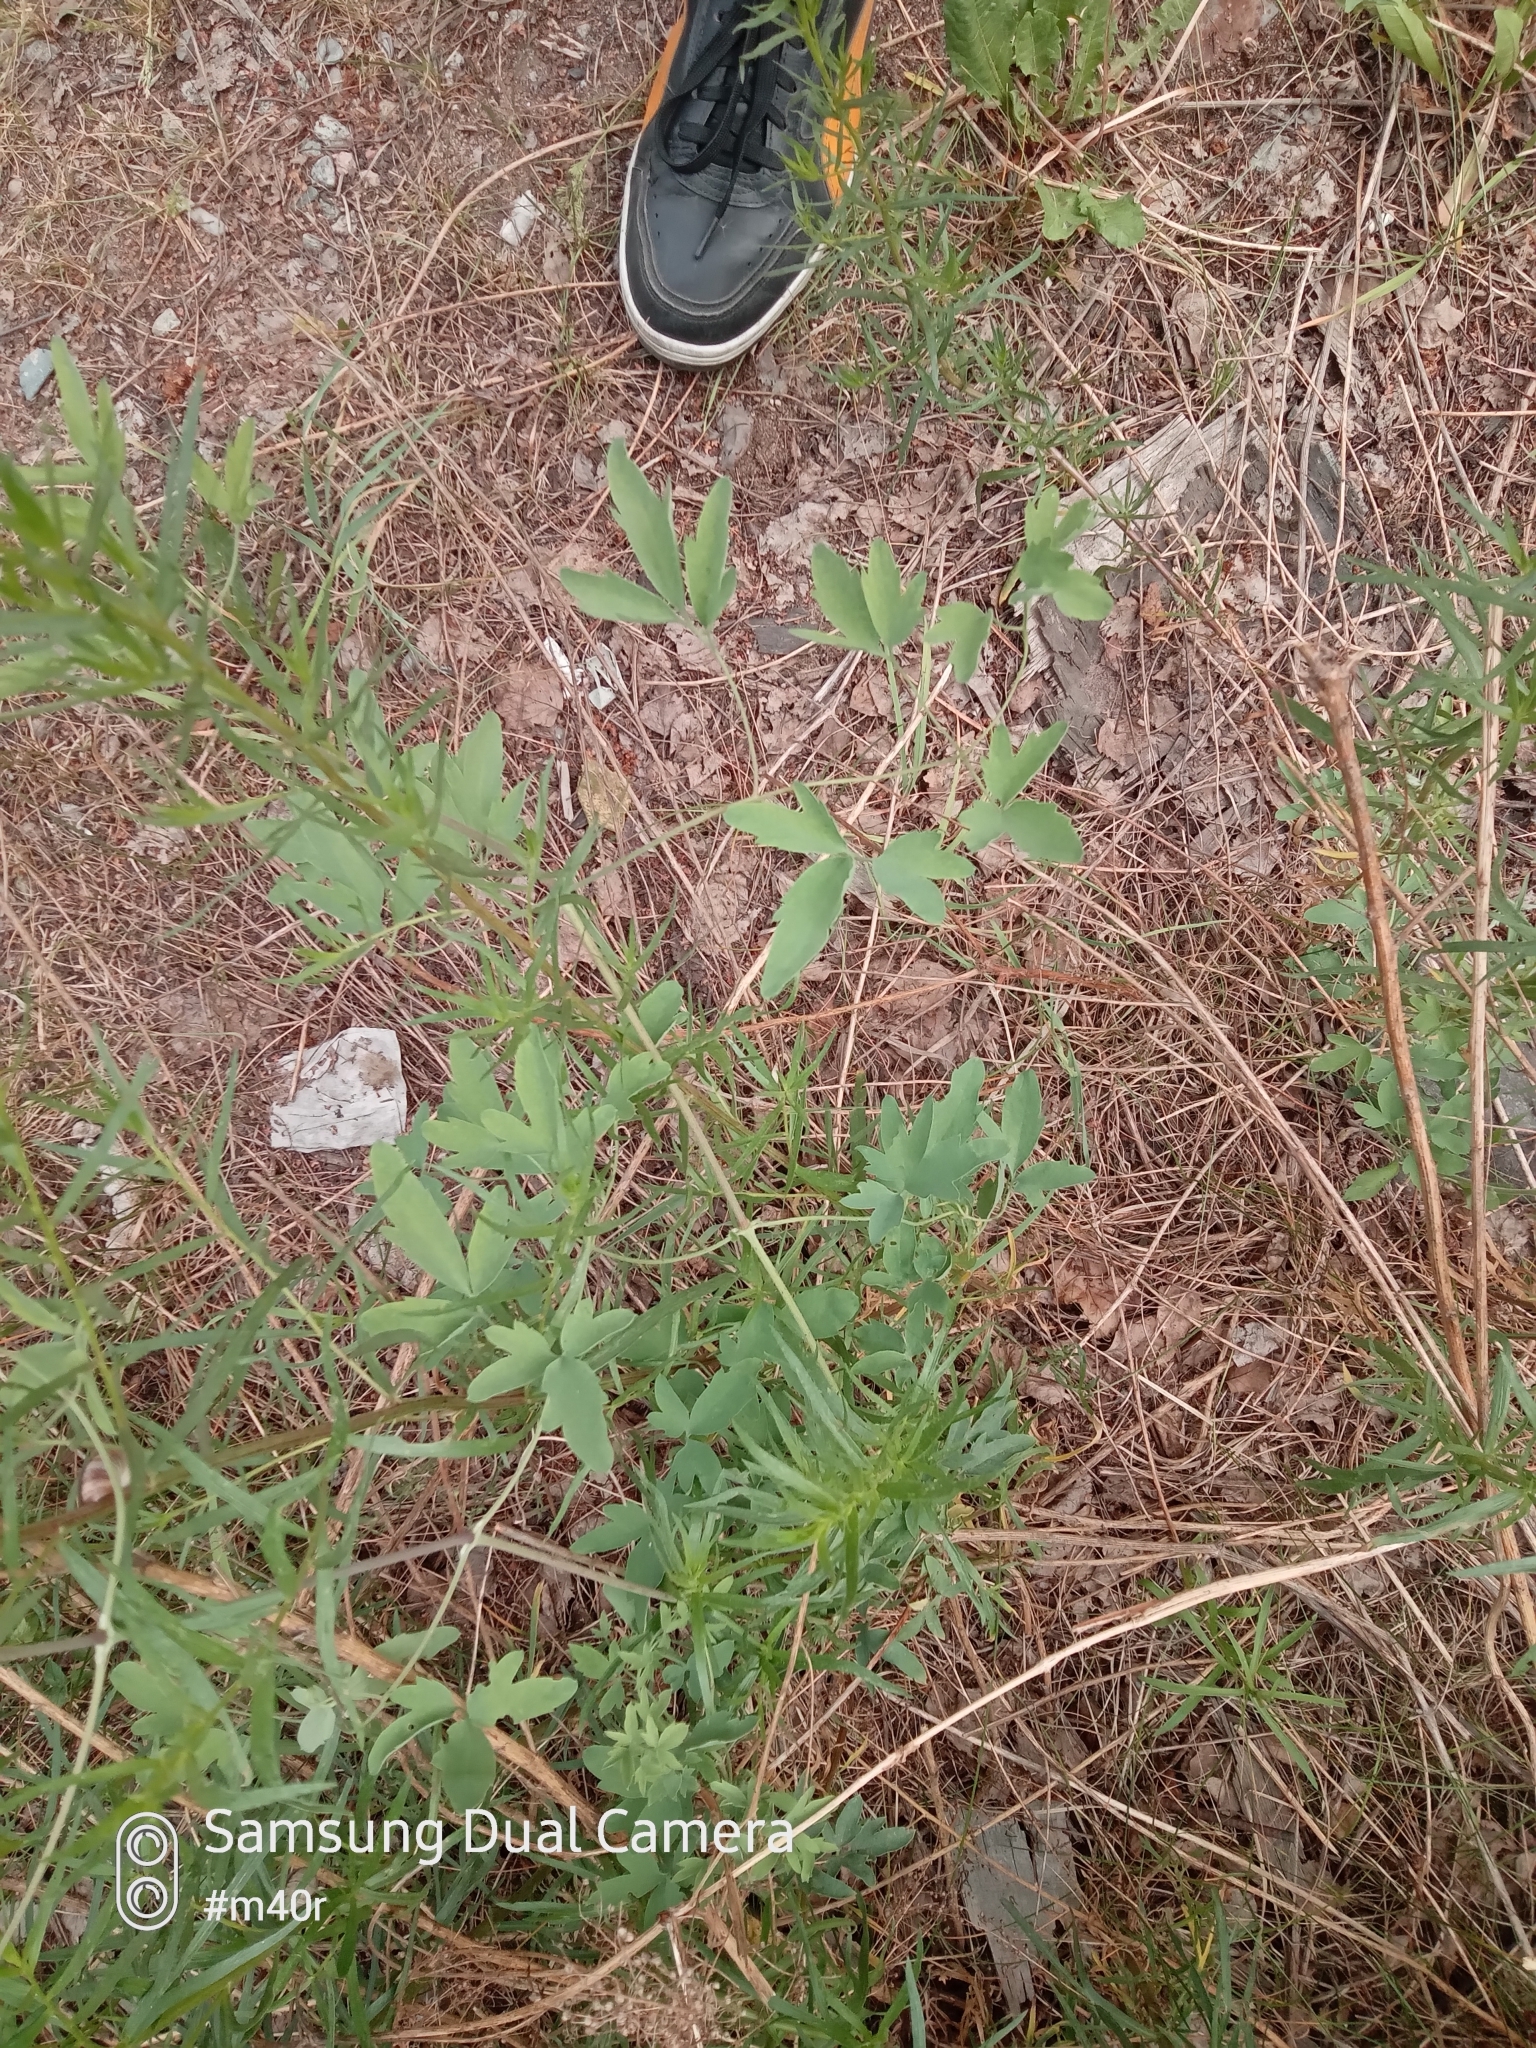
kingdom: Plantae
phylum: Tracheophyta
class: Magnoliopsida
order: Ranunculales
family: Ranunculaceae
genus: Clematis
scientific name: Clematis orientalis
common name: Oriental virgin's-bower
